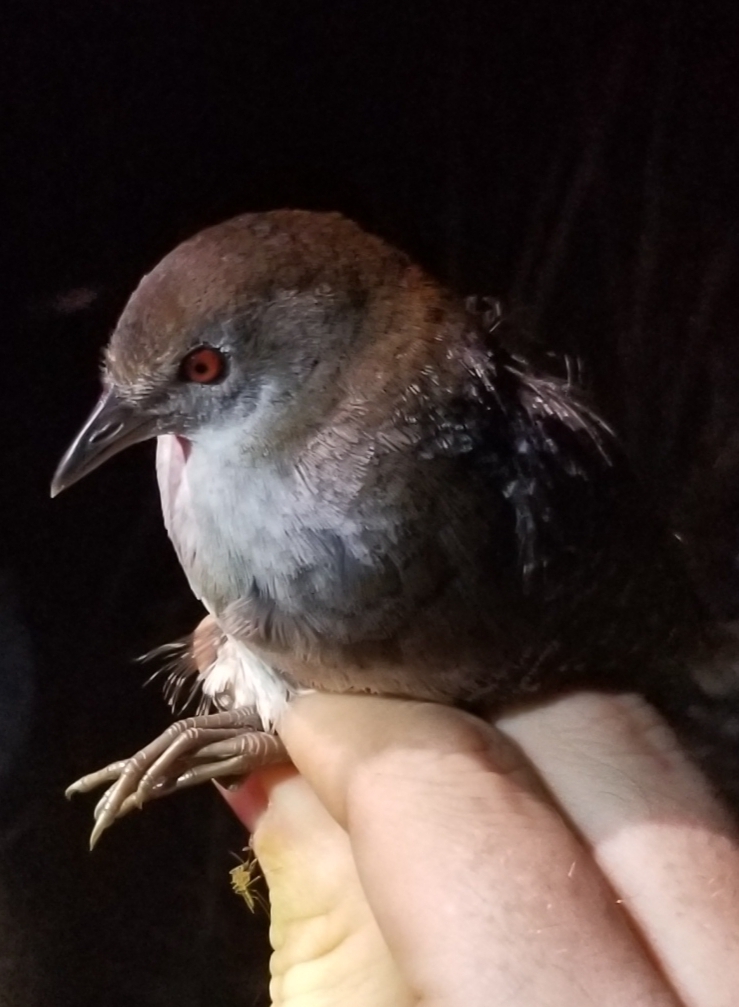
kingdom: Animalia
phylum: Chordata
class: Aves
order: Gruiformes
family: Rallidae
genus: Laterallus
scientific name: Laterallus jamaicensis
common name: Black rail
